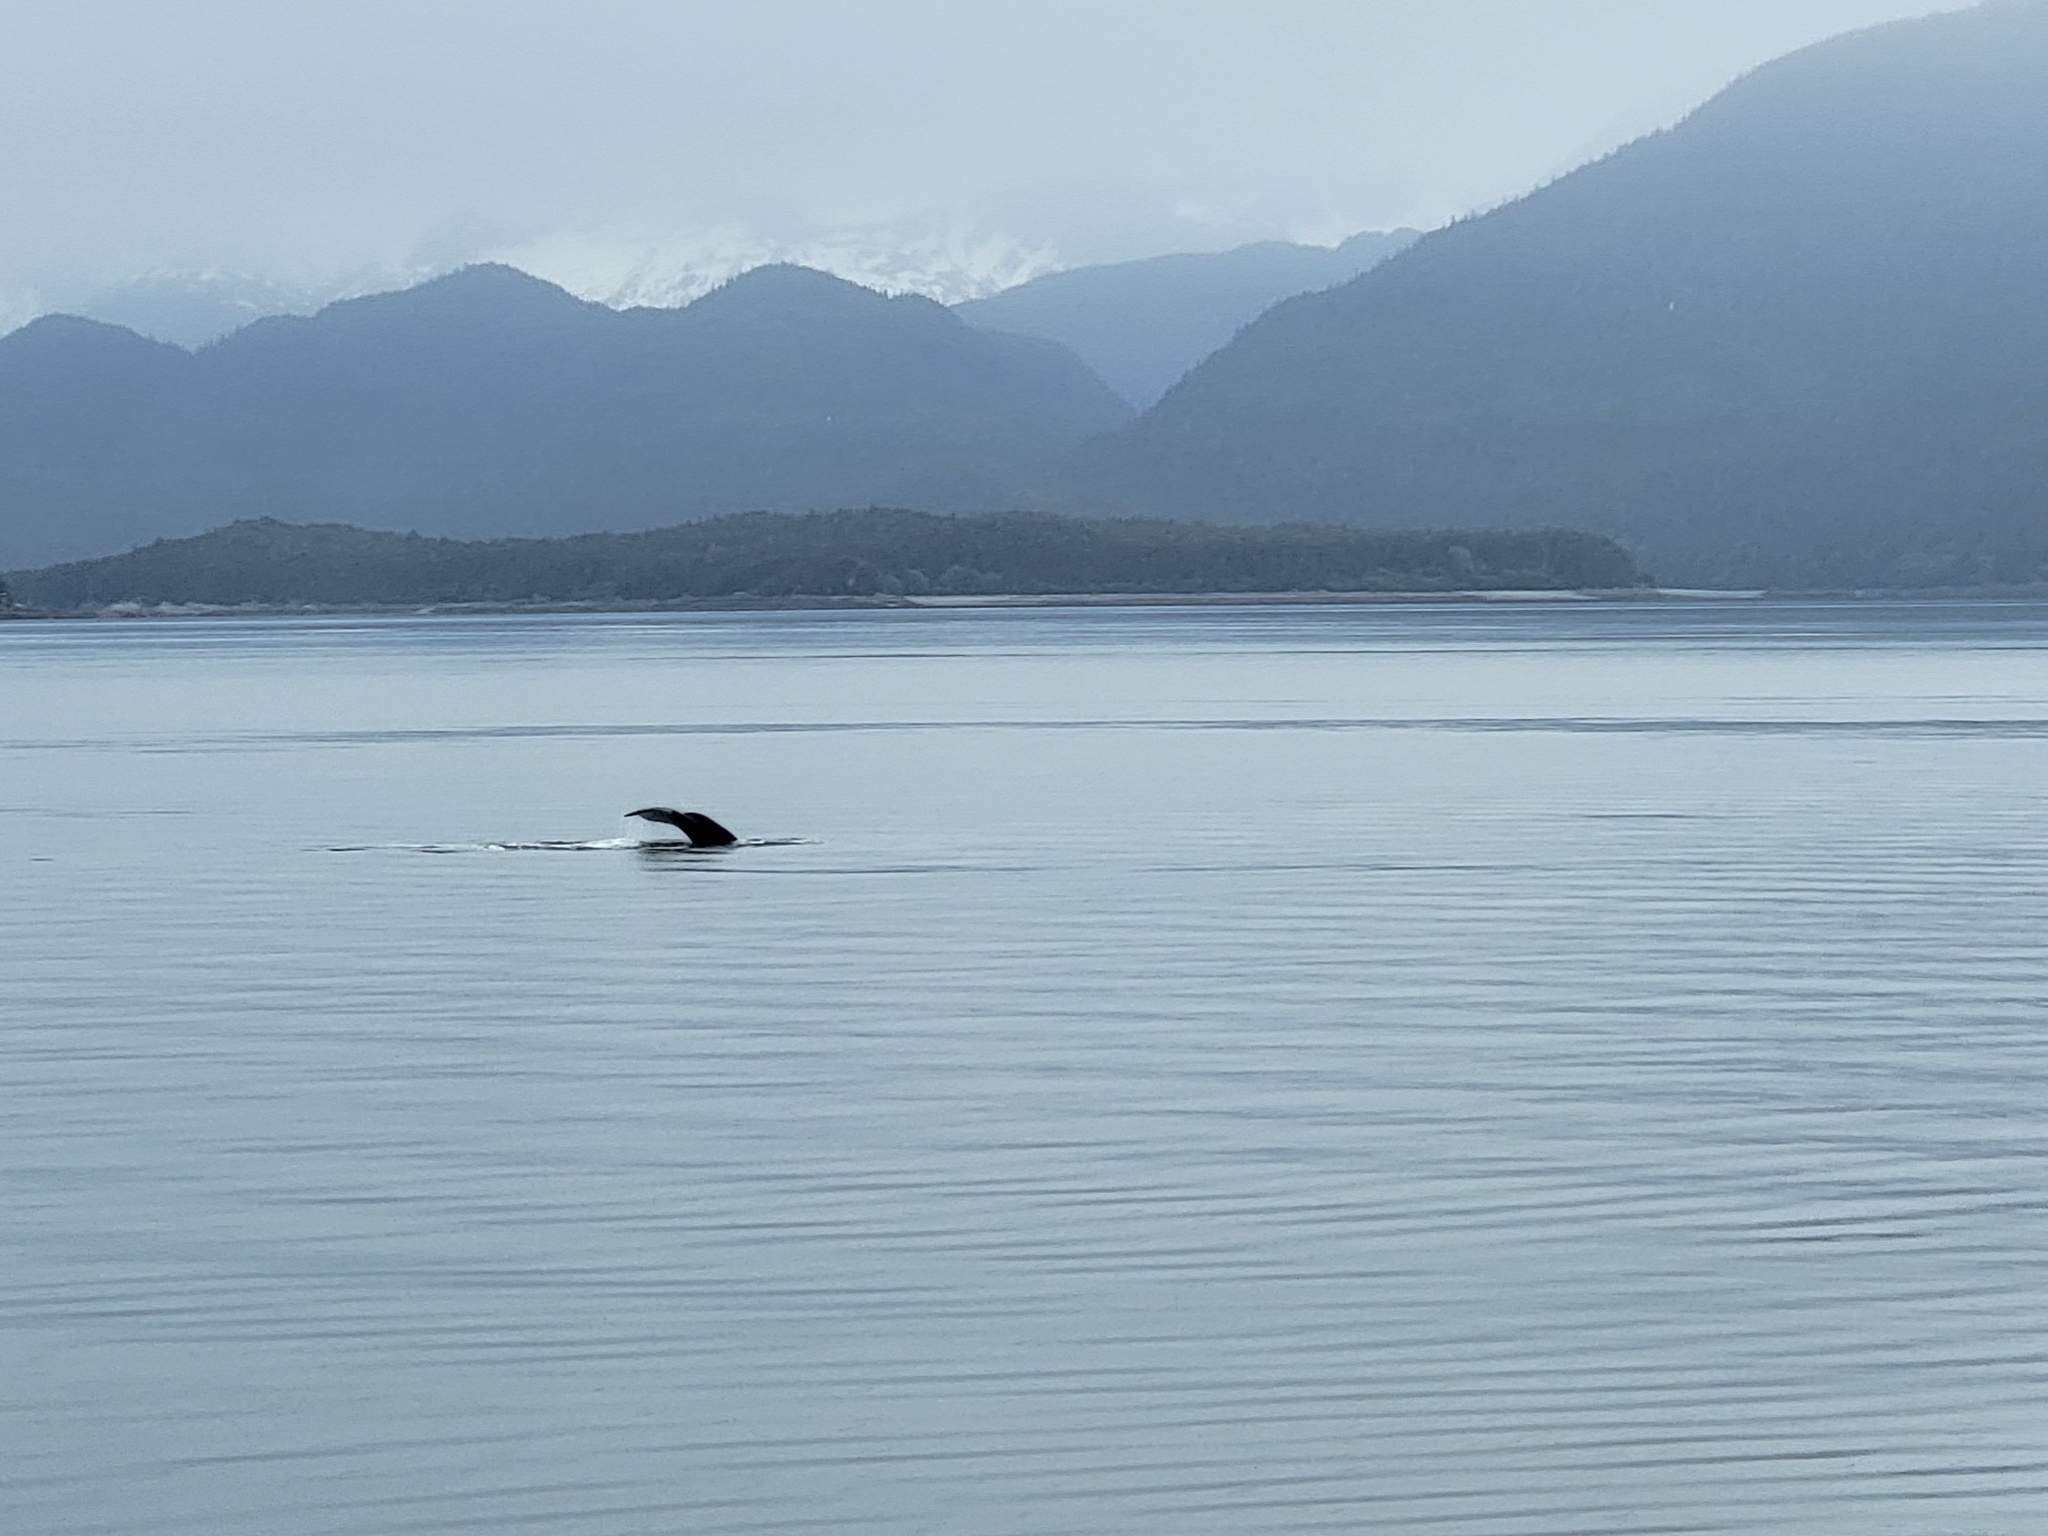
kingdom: Animalia
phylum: Chordata
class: Mammalia
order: Cetacea
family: Balaenopteridae
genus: Megaptera
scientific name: Megaptera novaeangliae
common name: Humpback whale
